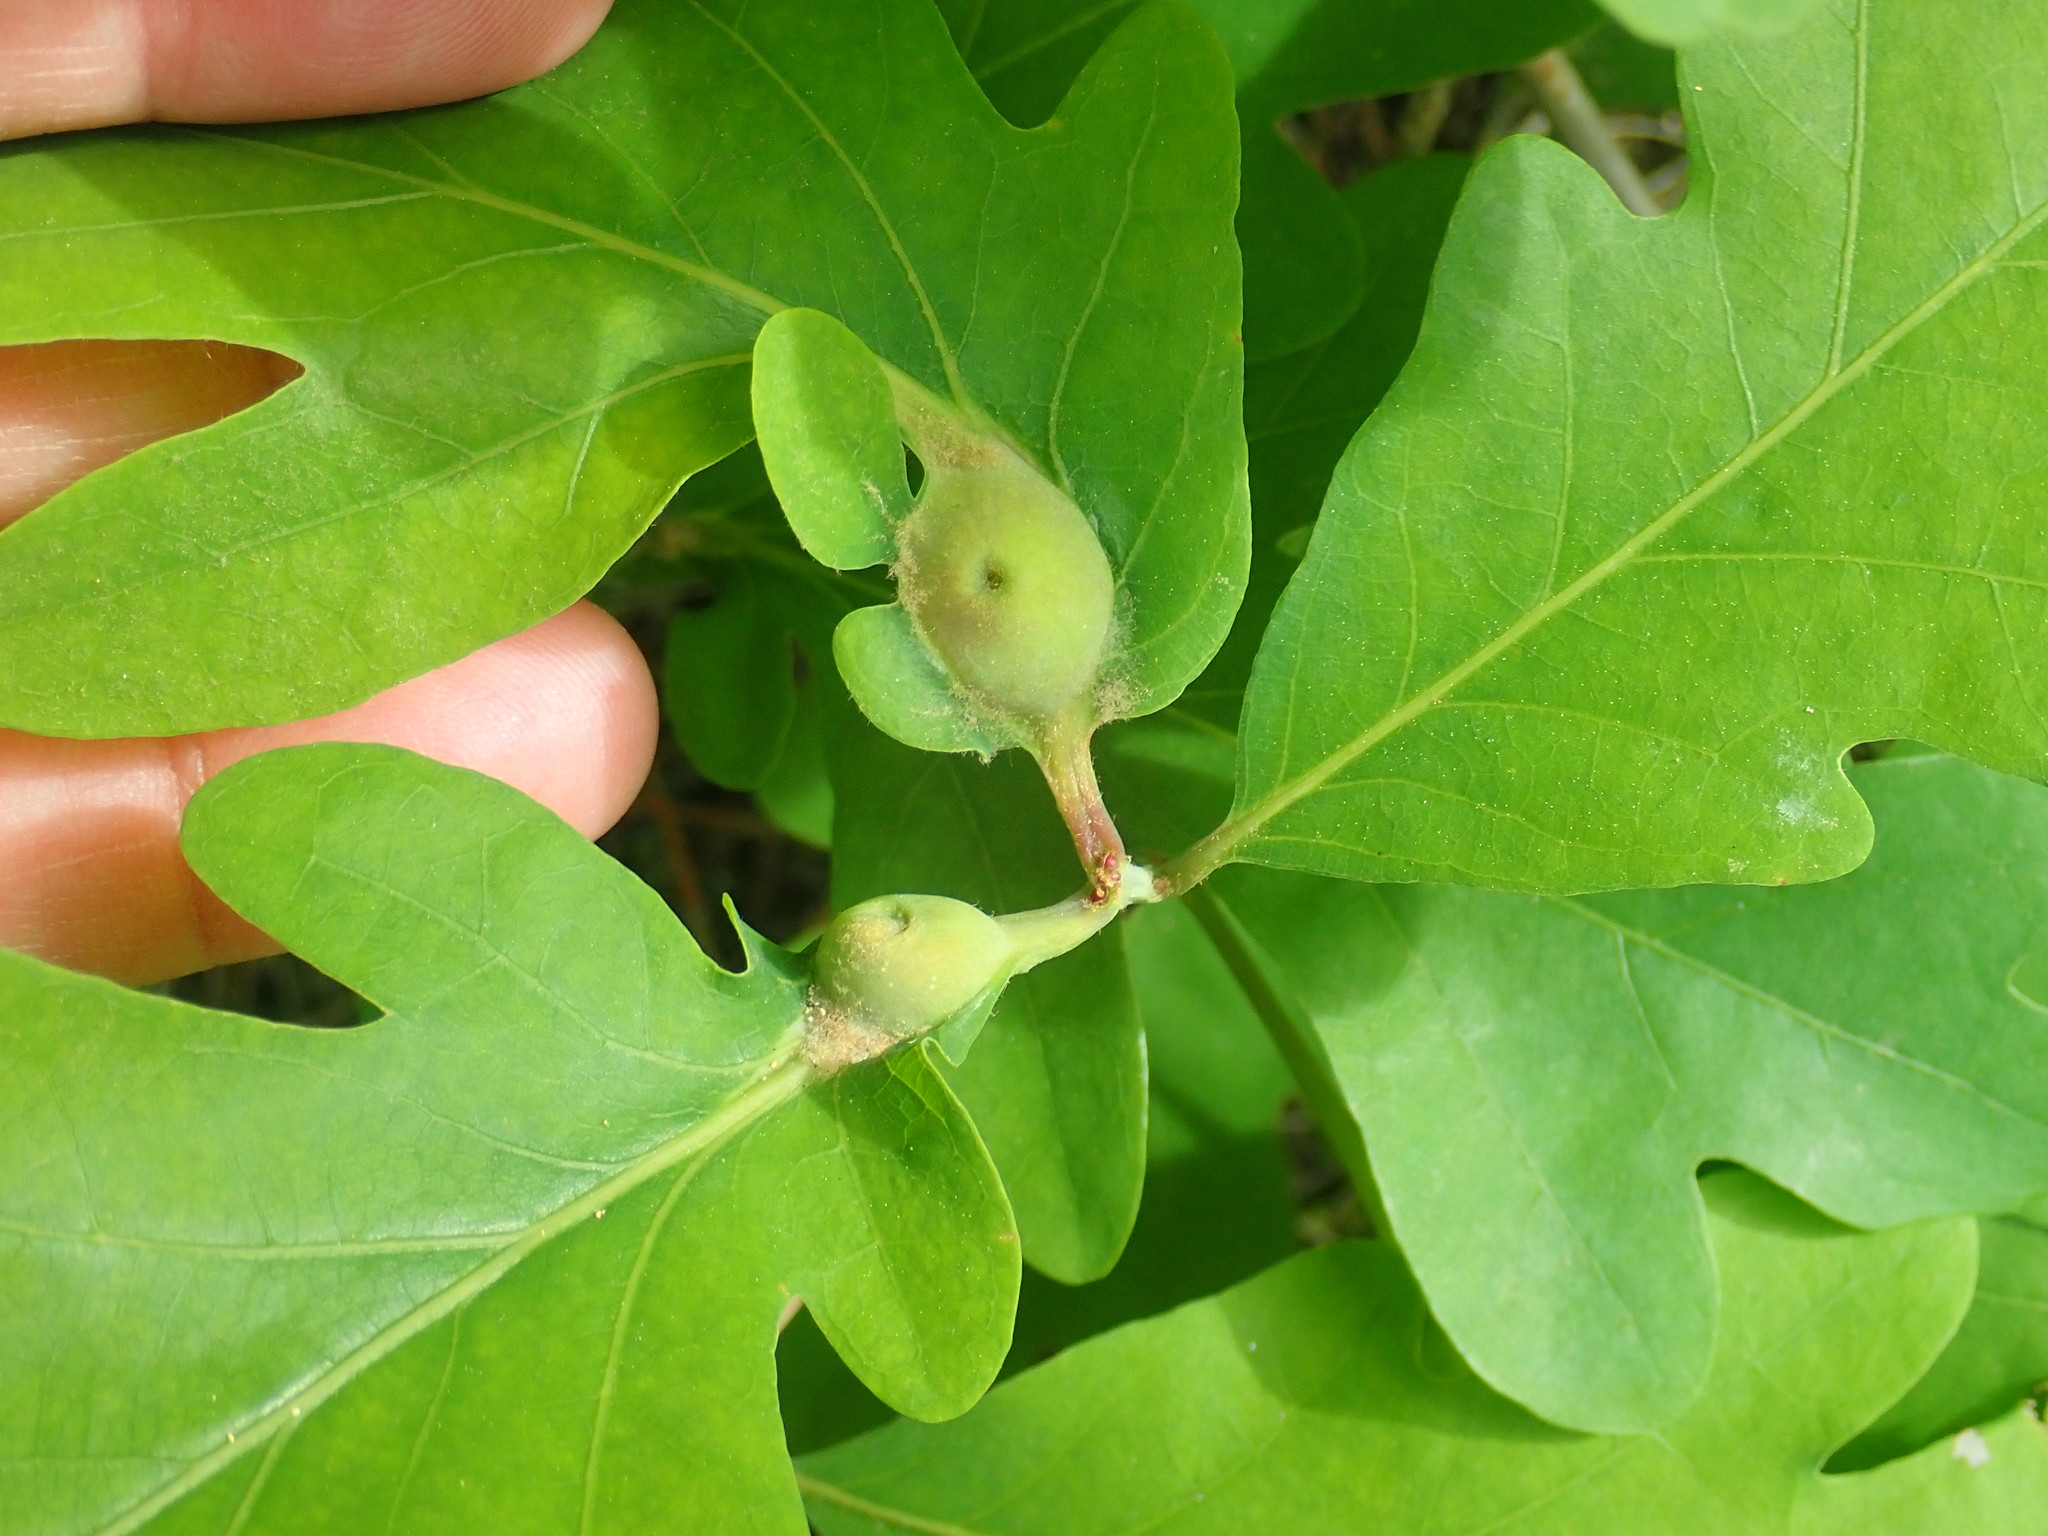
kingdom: Animalia
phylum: Arthropoda
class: Insecta
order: Hymenoptera
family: Cynipidae
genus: Andricus
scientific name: Andricus
